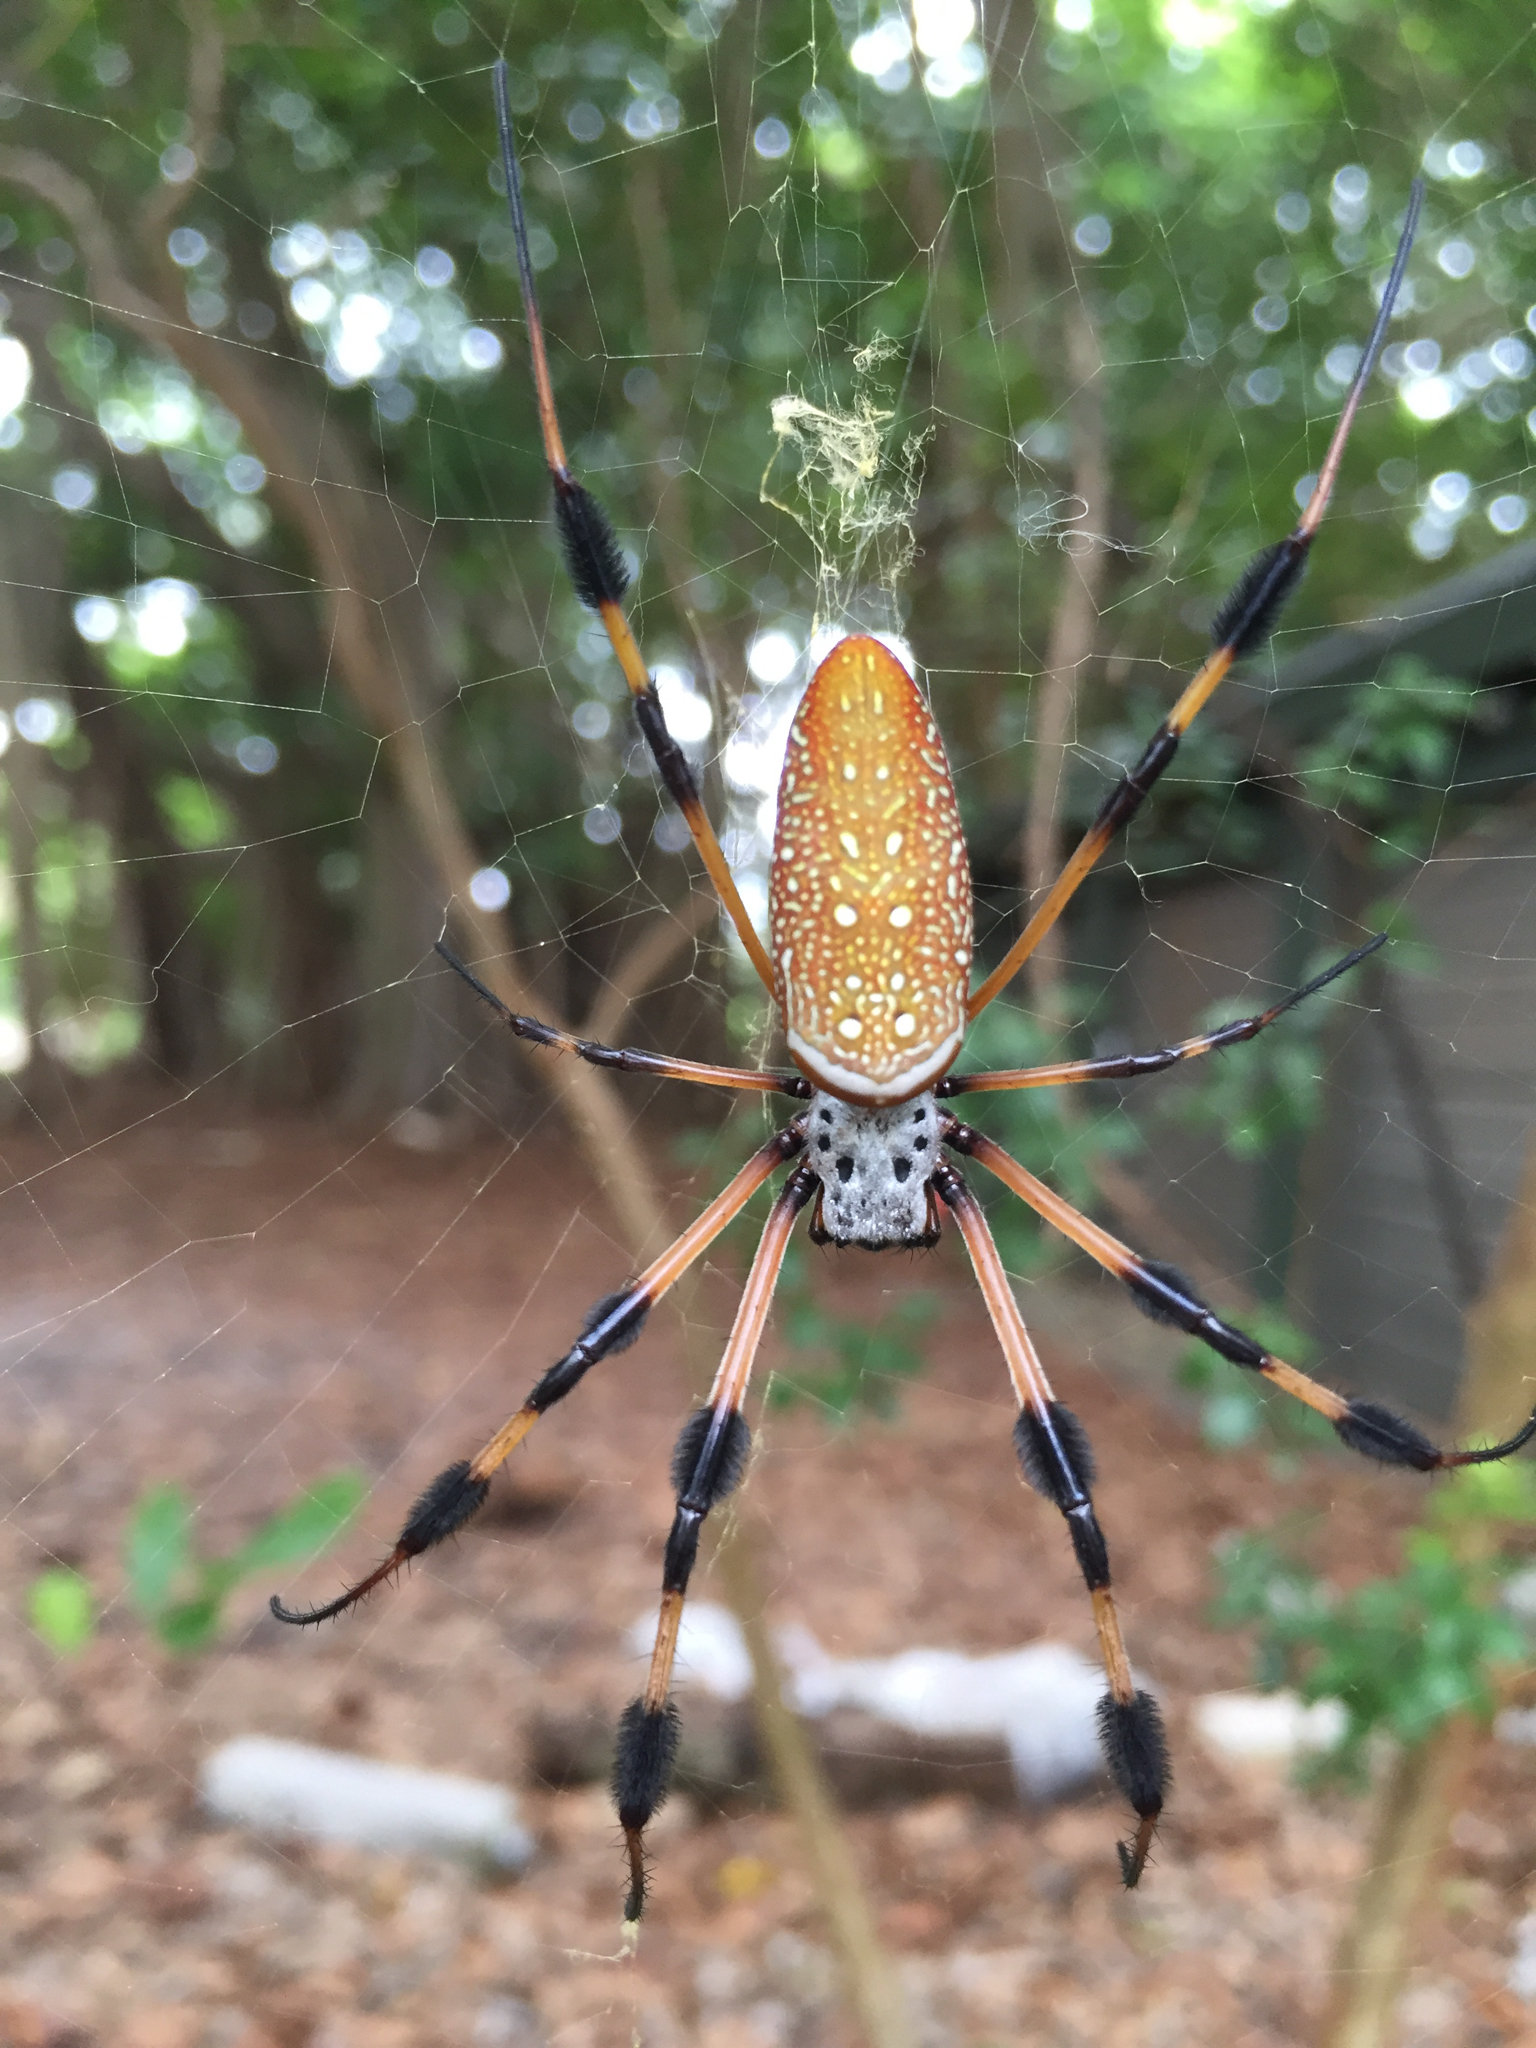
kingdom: Animalia
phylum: Arthropoda
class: Arachnida
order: Araneae
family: Araneidae
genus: Trichonephila
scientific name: Trichonephila clavipes
